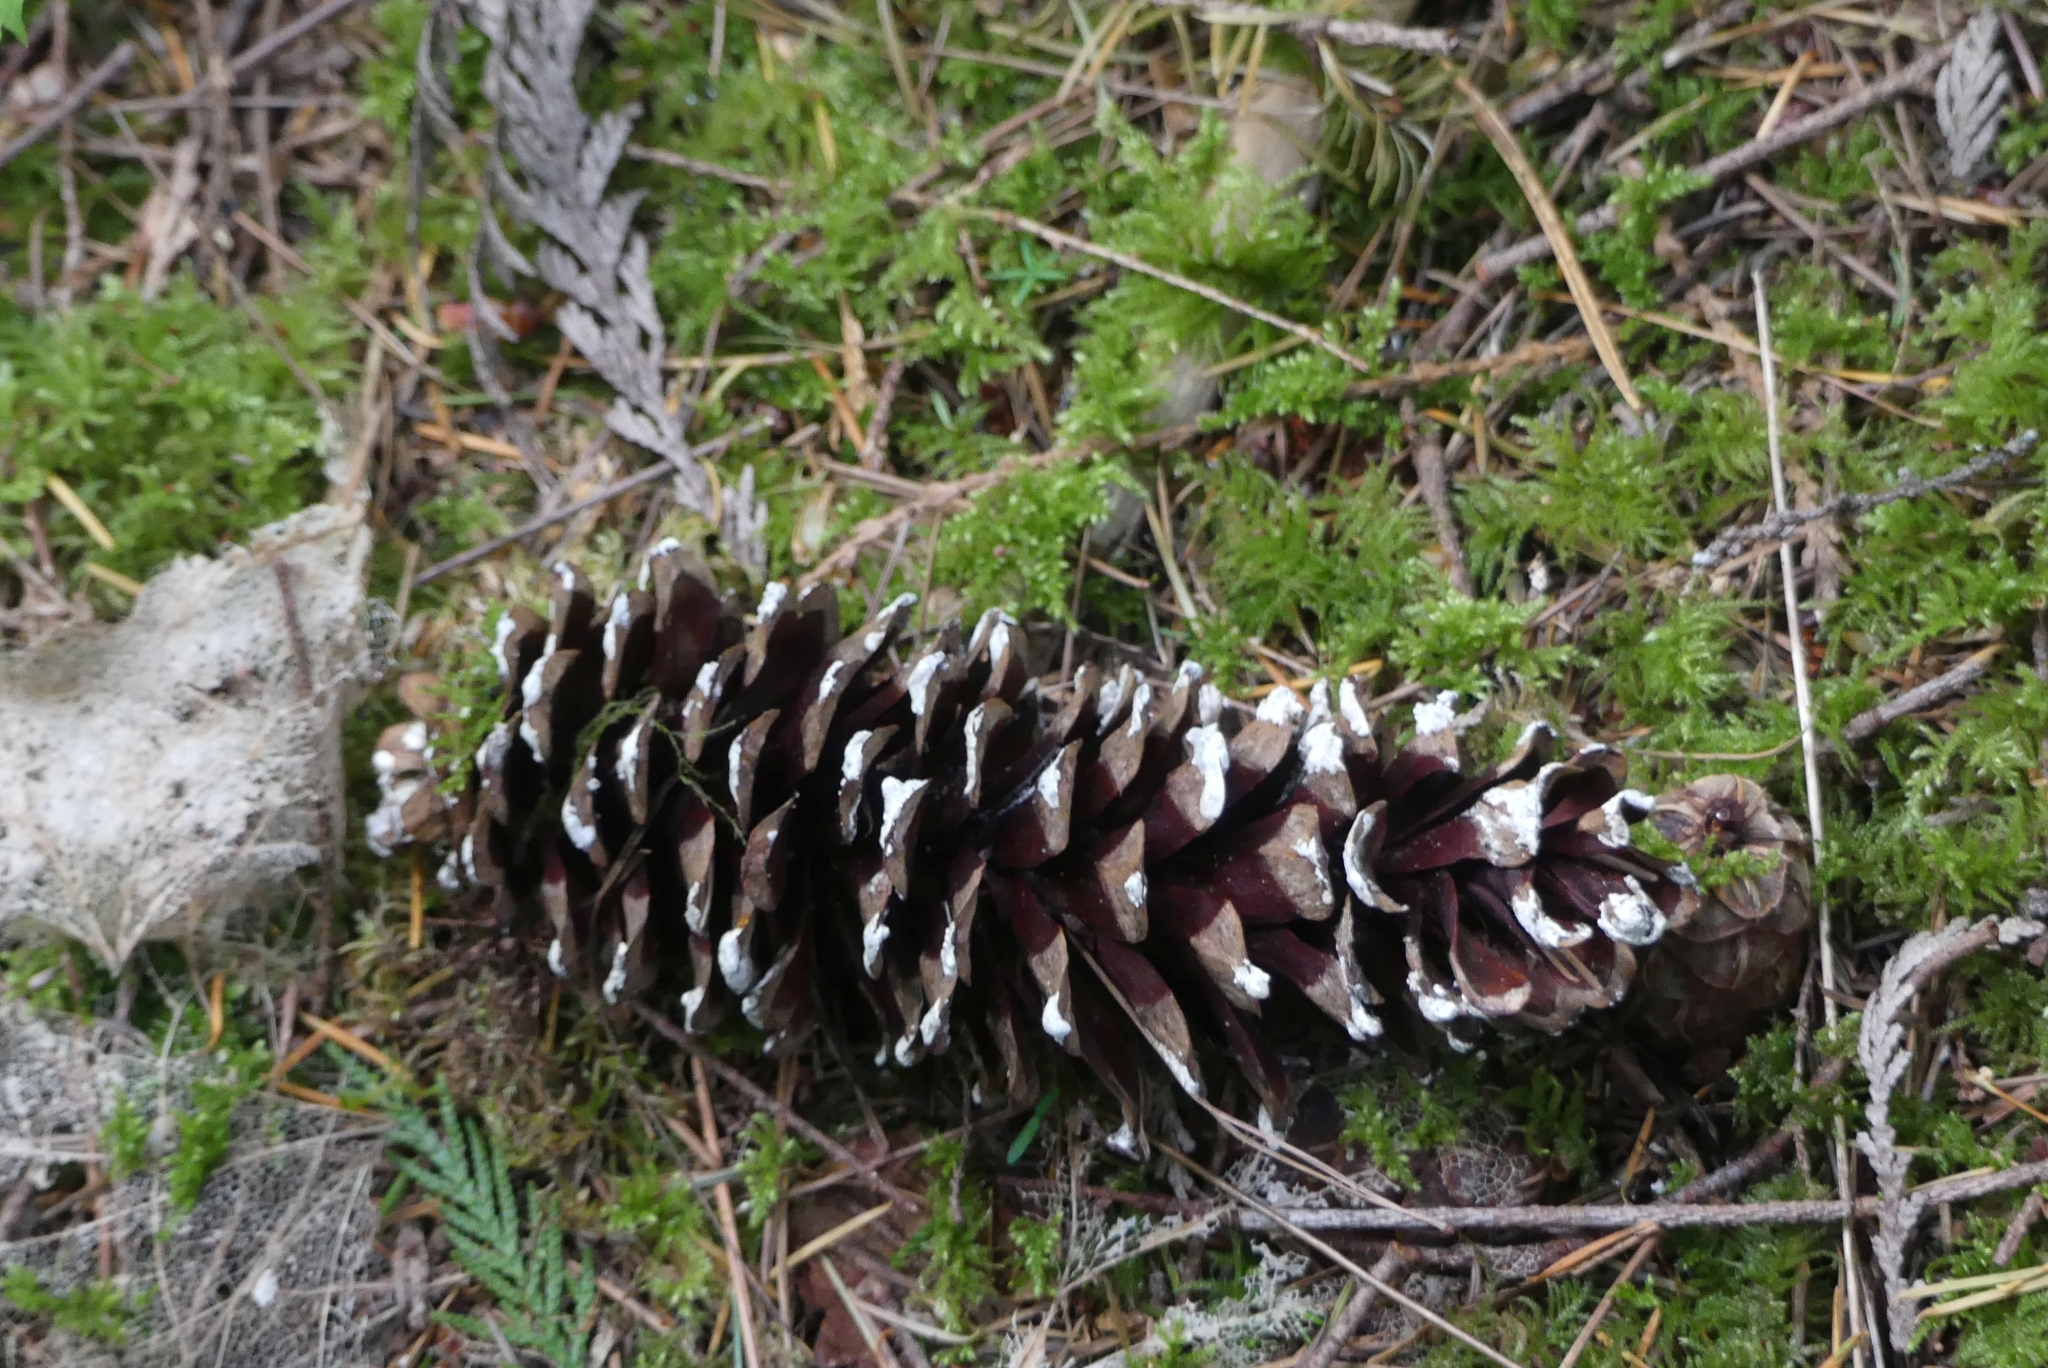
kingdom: Plantae
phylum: Tracheophyta
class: Pinopsida
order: Pinales
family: Pinaceae
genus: Pinus
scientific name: Pinus monticola
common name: Western white pine
